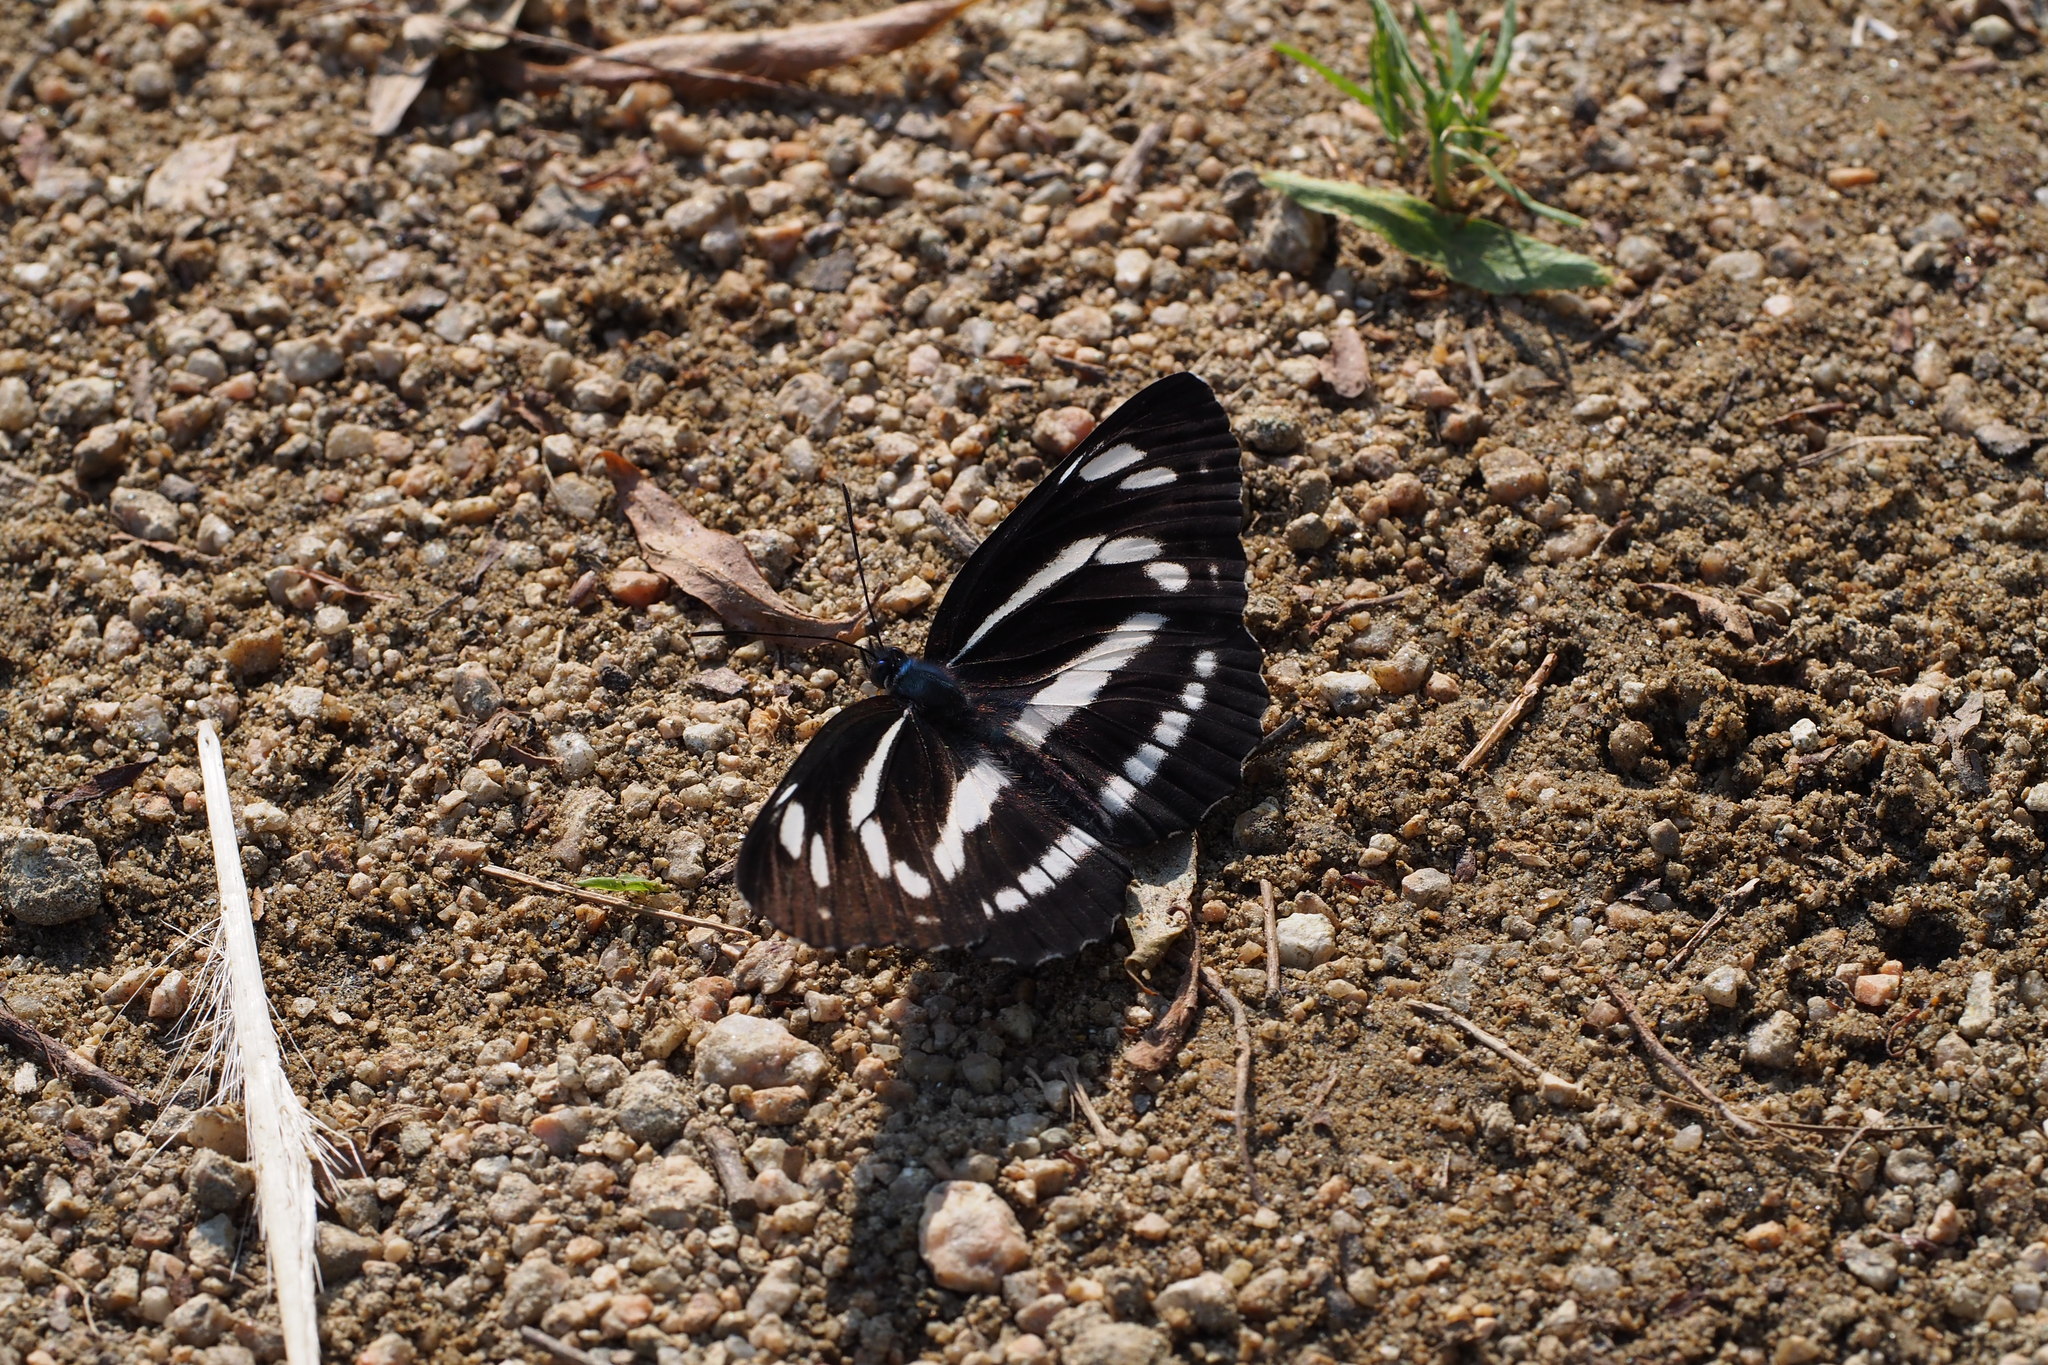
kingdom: Animalia
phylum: Arthropoda
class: Insecta
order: Lepidoptera
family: Nymphalidae
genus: Neptis
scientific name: Neptis philyra
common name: Long-streak sailor
